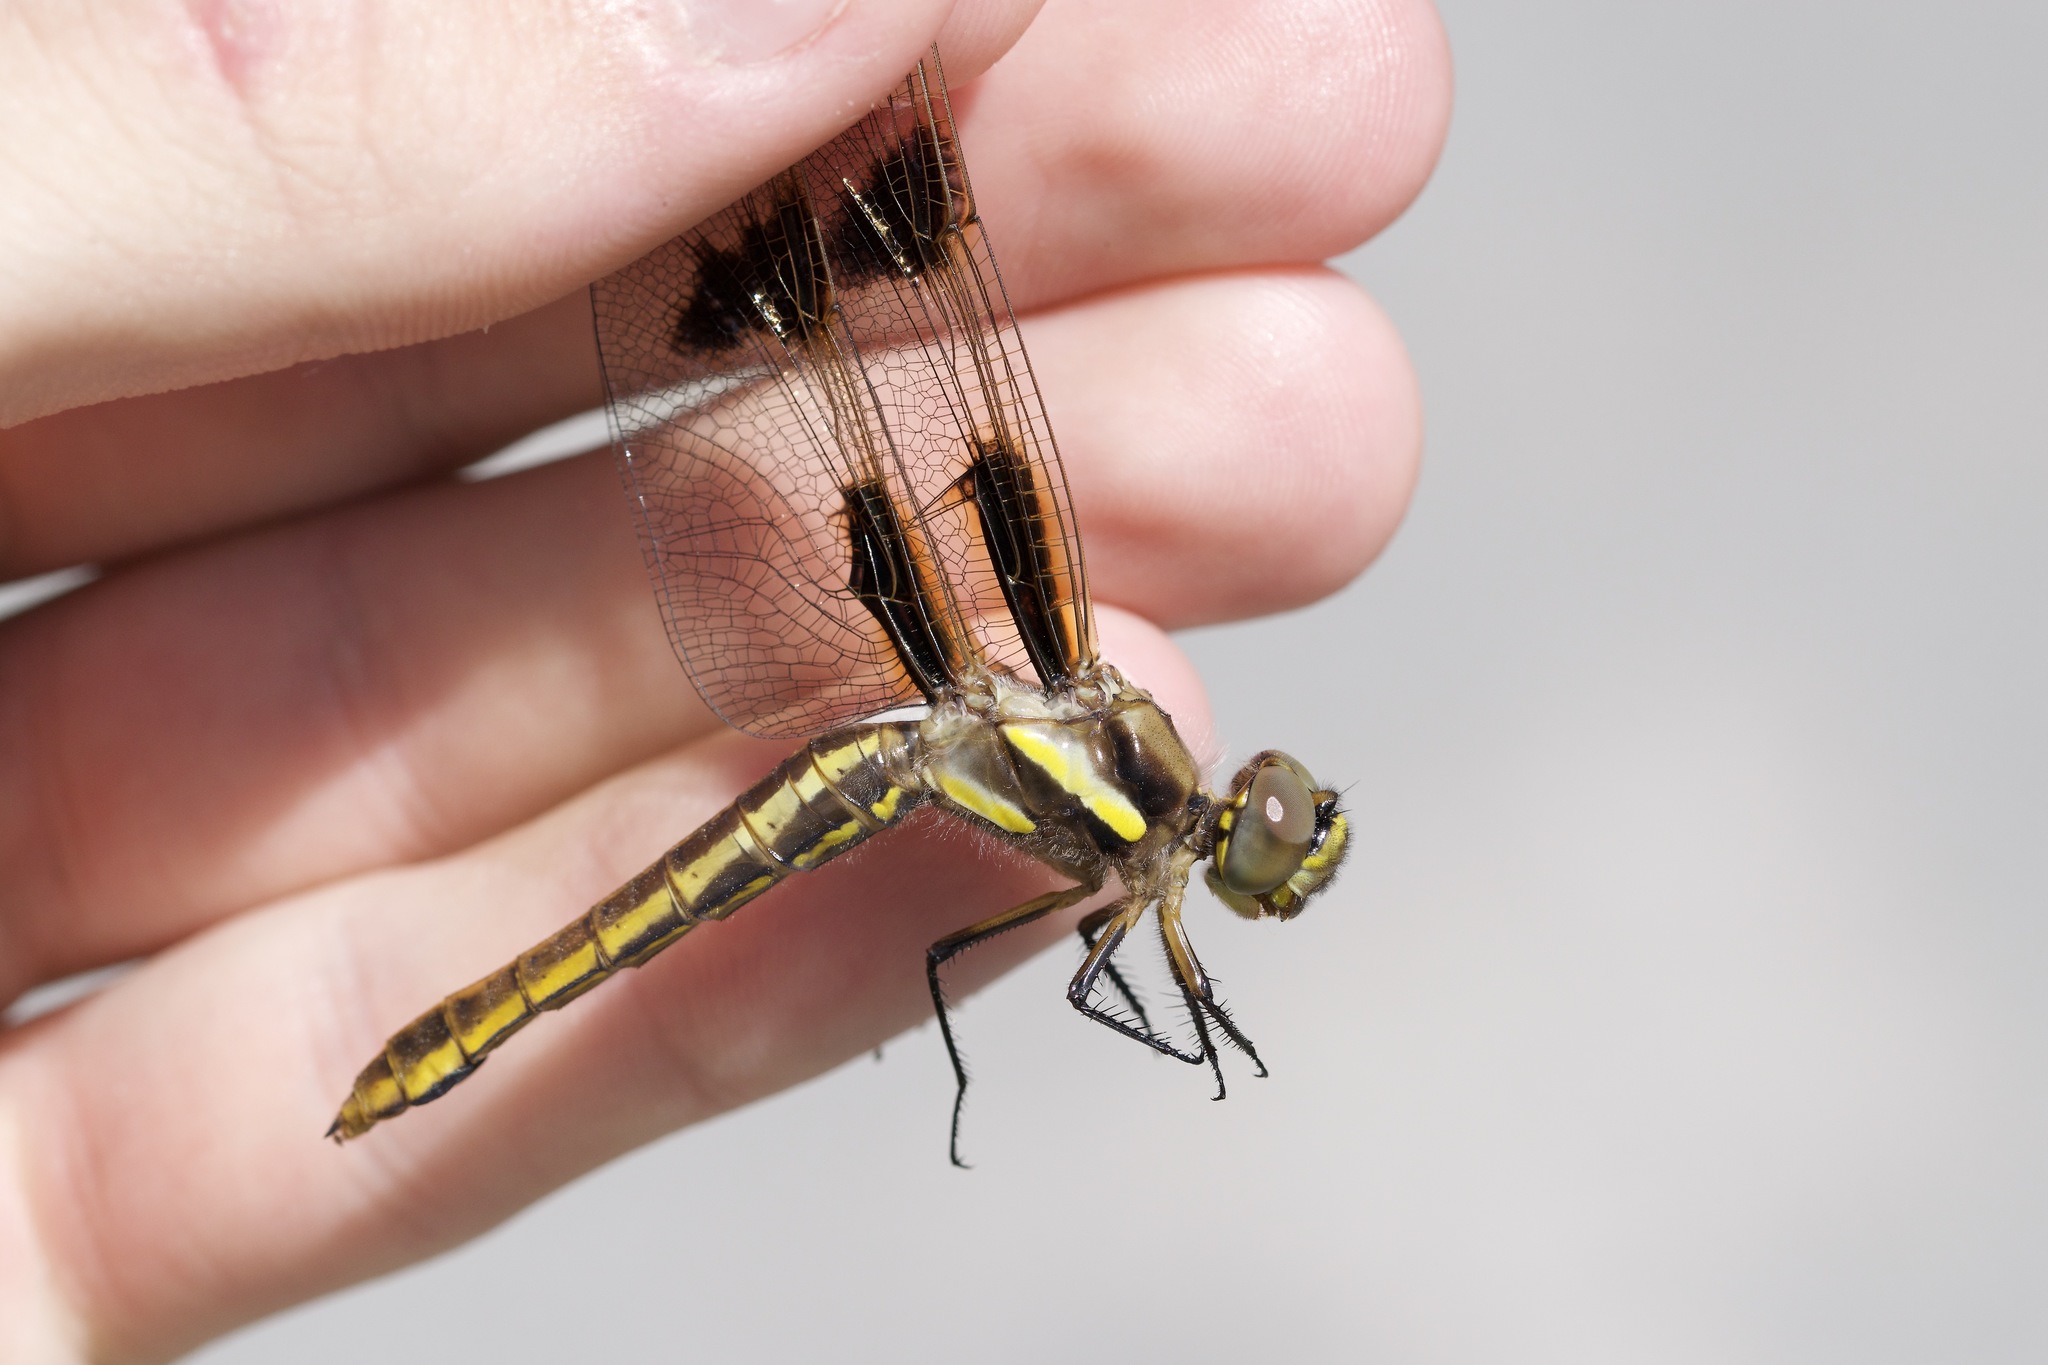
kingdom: Animalia
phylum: Arthropoda
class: Insecta
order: Odonata
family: Libellulidae
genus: Libellula
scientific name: Libellula pulchella
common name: Twelve-spotted skimmer
